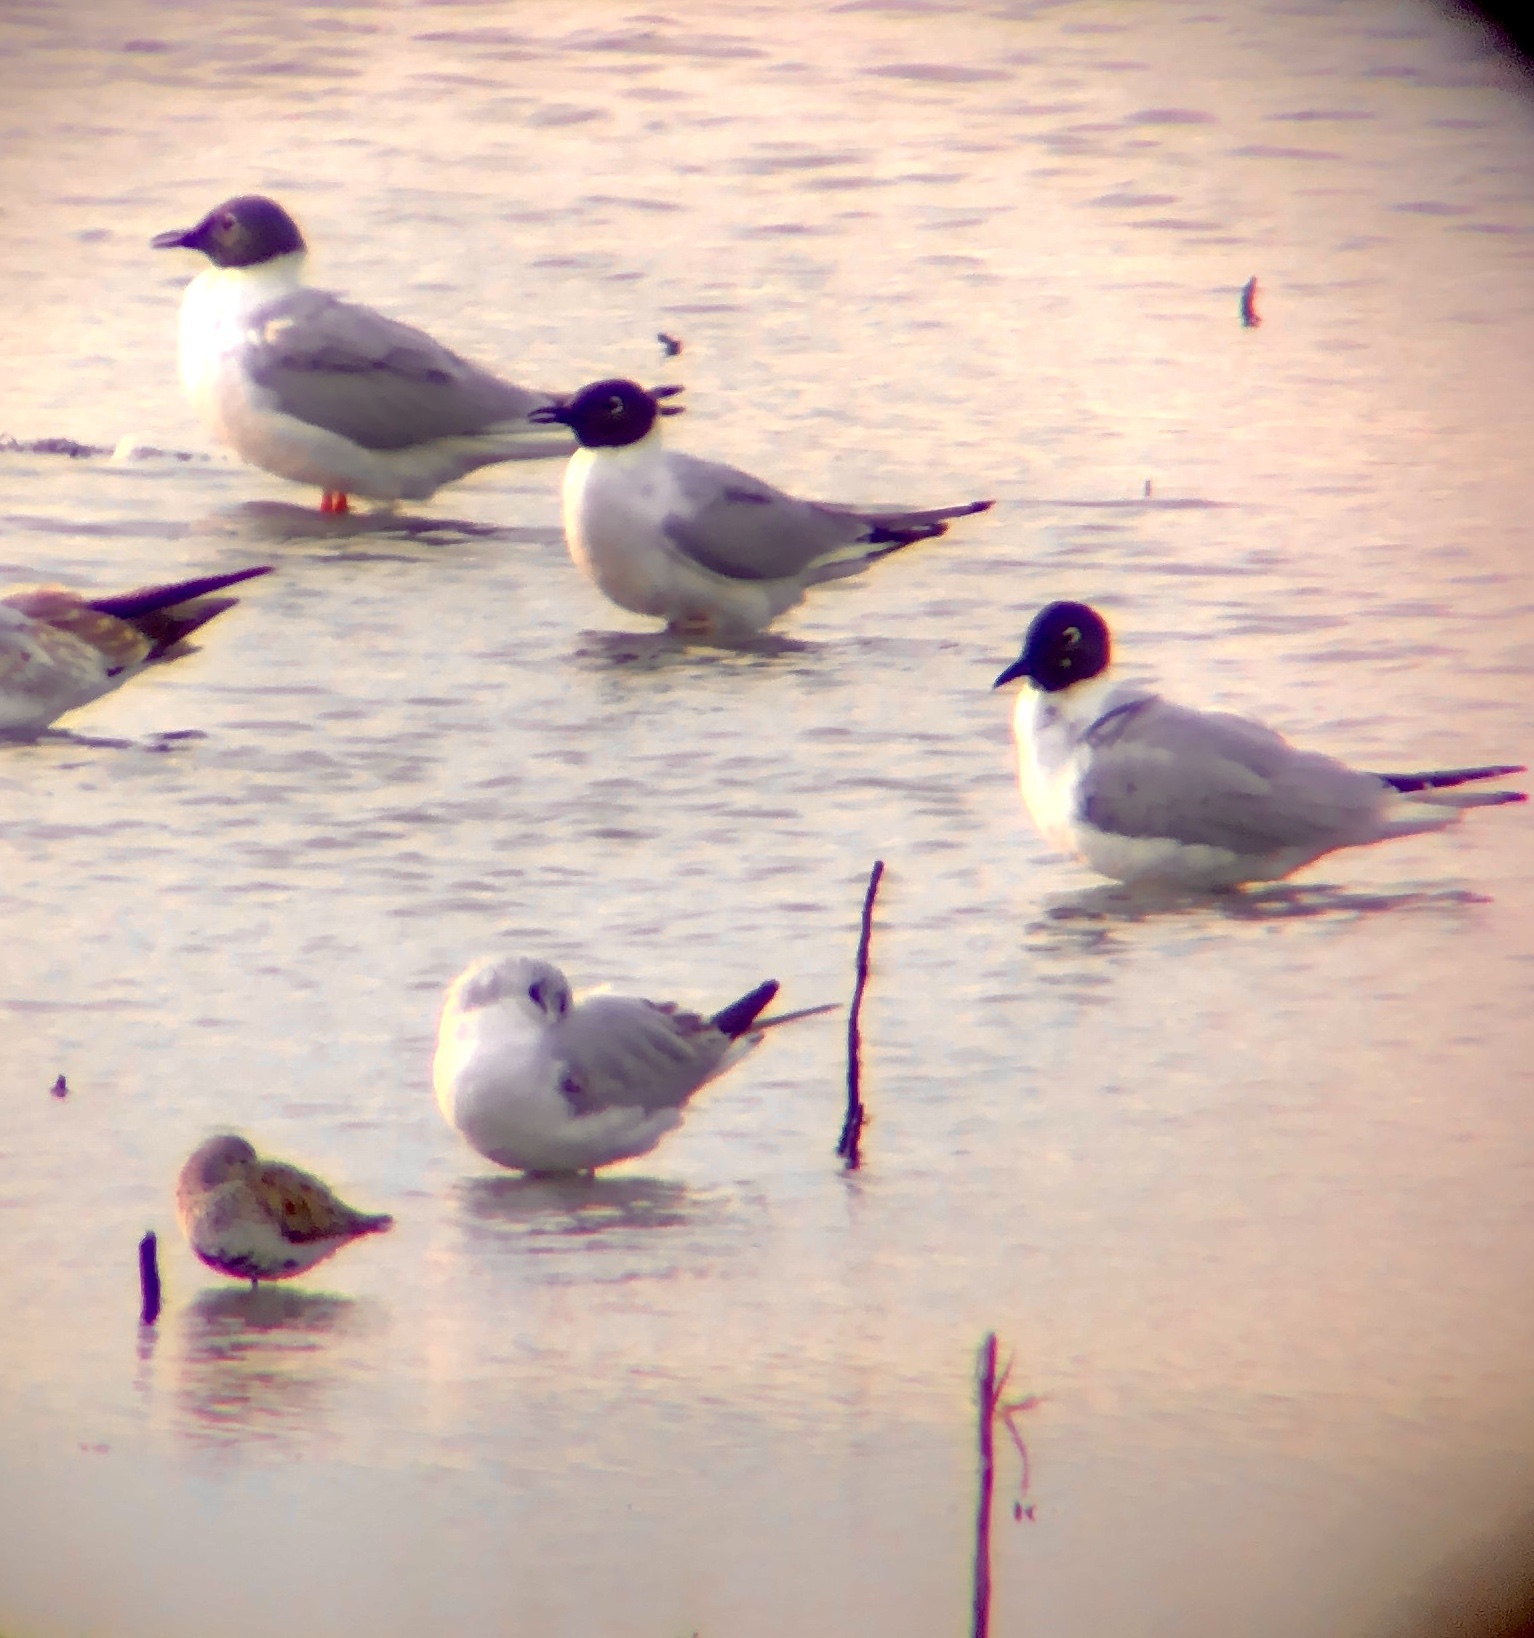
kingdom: Animalia
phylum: Chordata
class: Aves
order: Charadriiformes
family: Laridae
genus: Chroicocephalus
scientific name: Chroicocephalus philadelphia
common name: Bonaparte's gull
